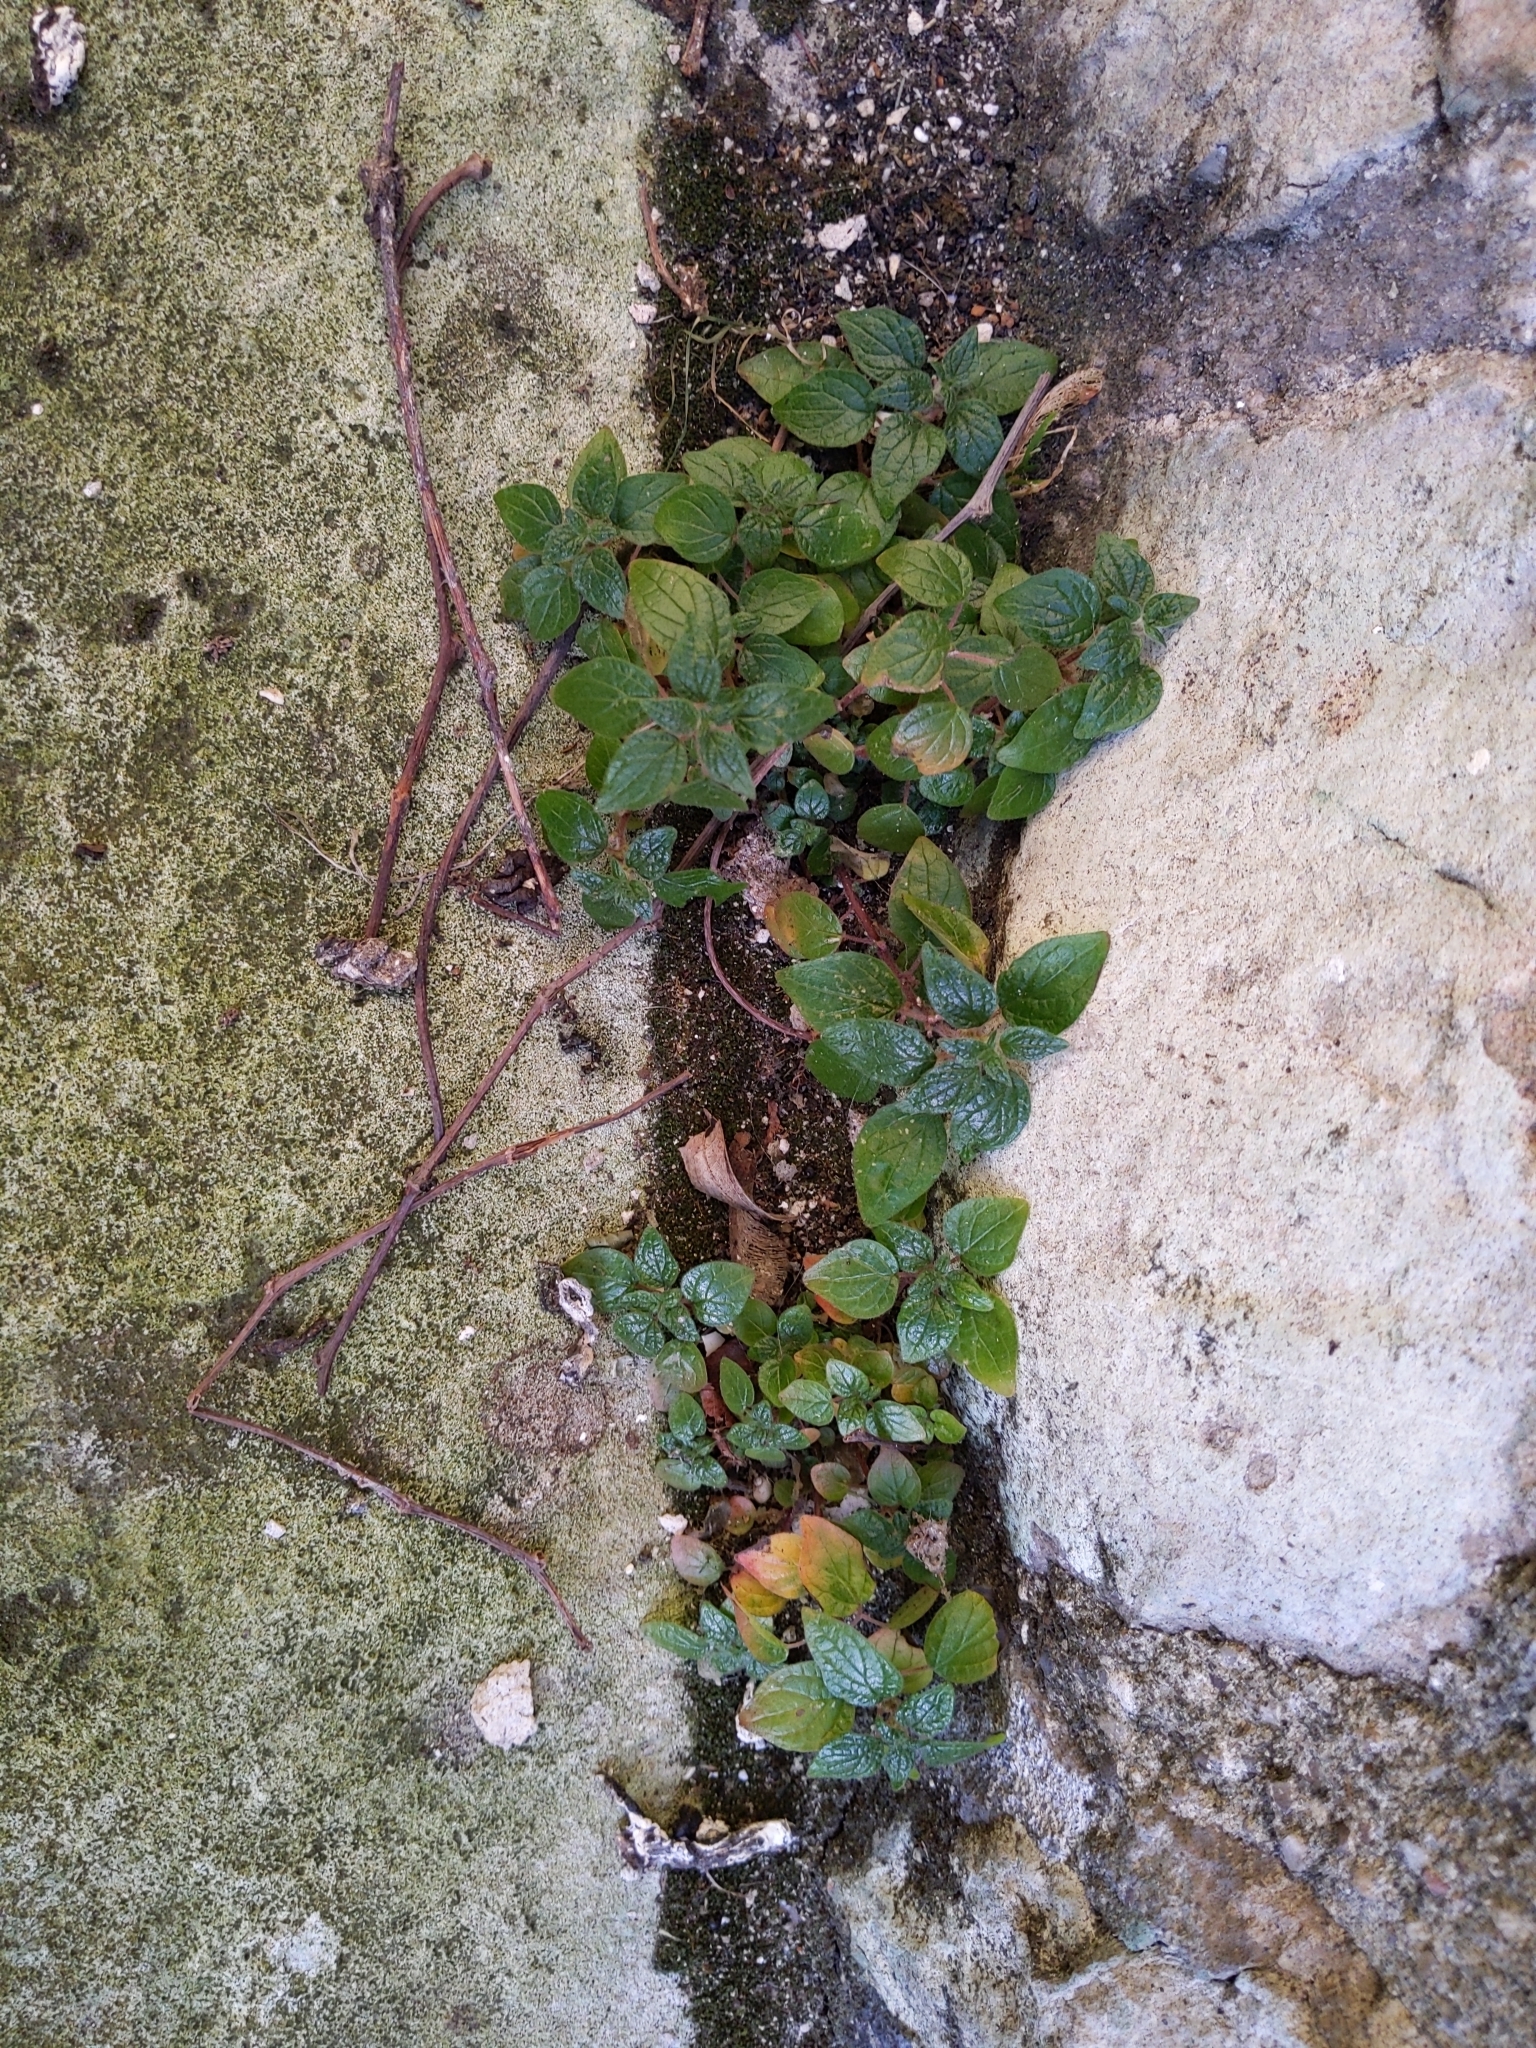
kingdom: Plantae
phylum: Tracheophyta
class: Magnoliopsida
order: Rosales
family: Urticaceae
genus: Parietaria
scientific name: Parietaria judaica
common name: Pellitory-of-the-wall
